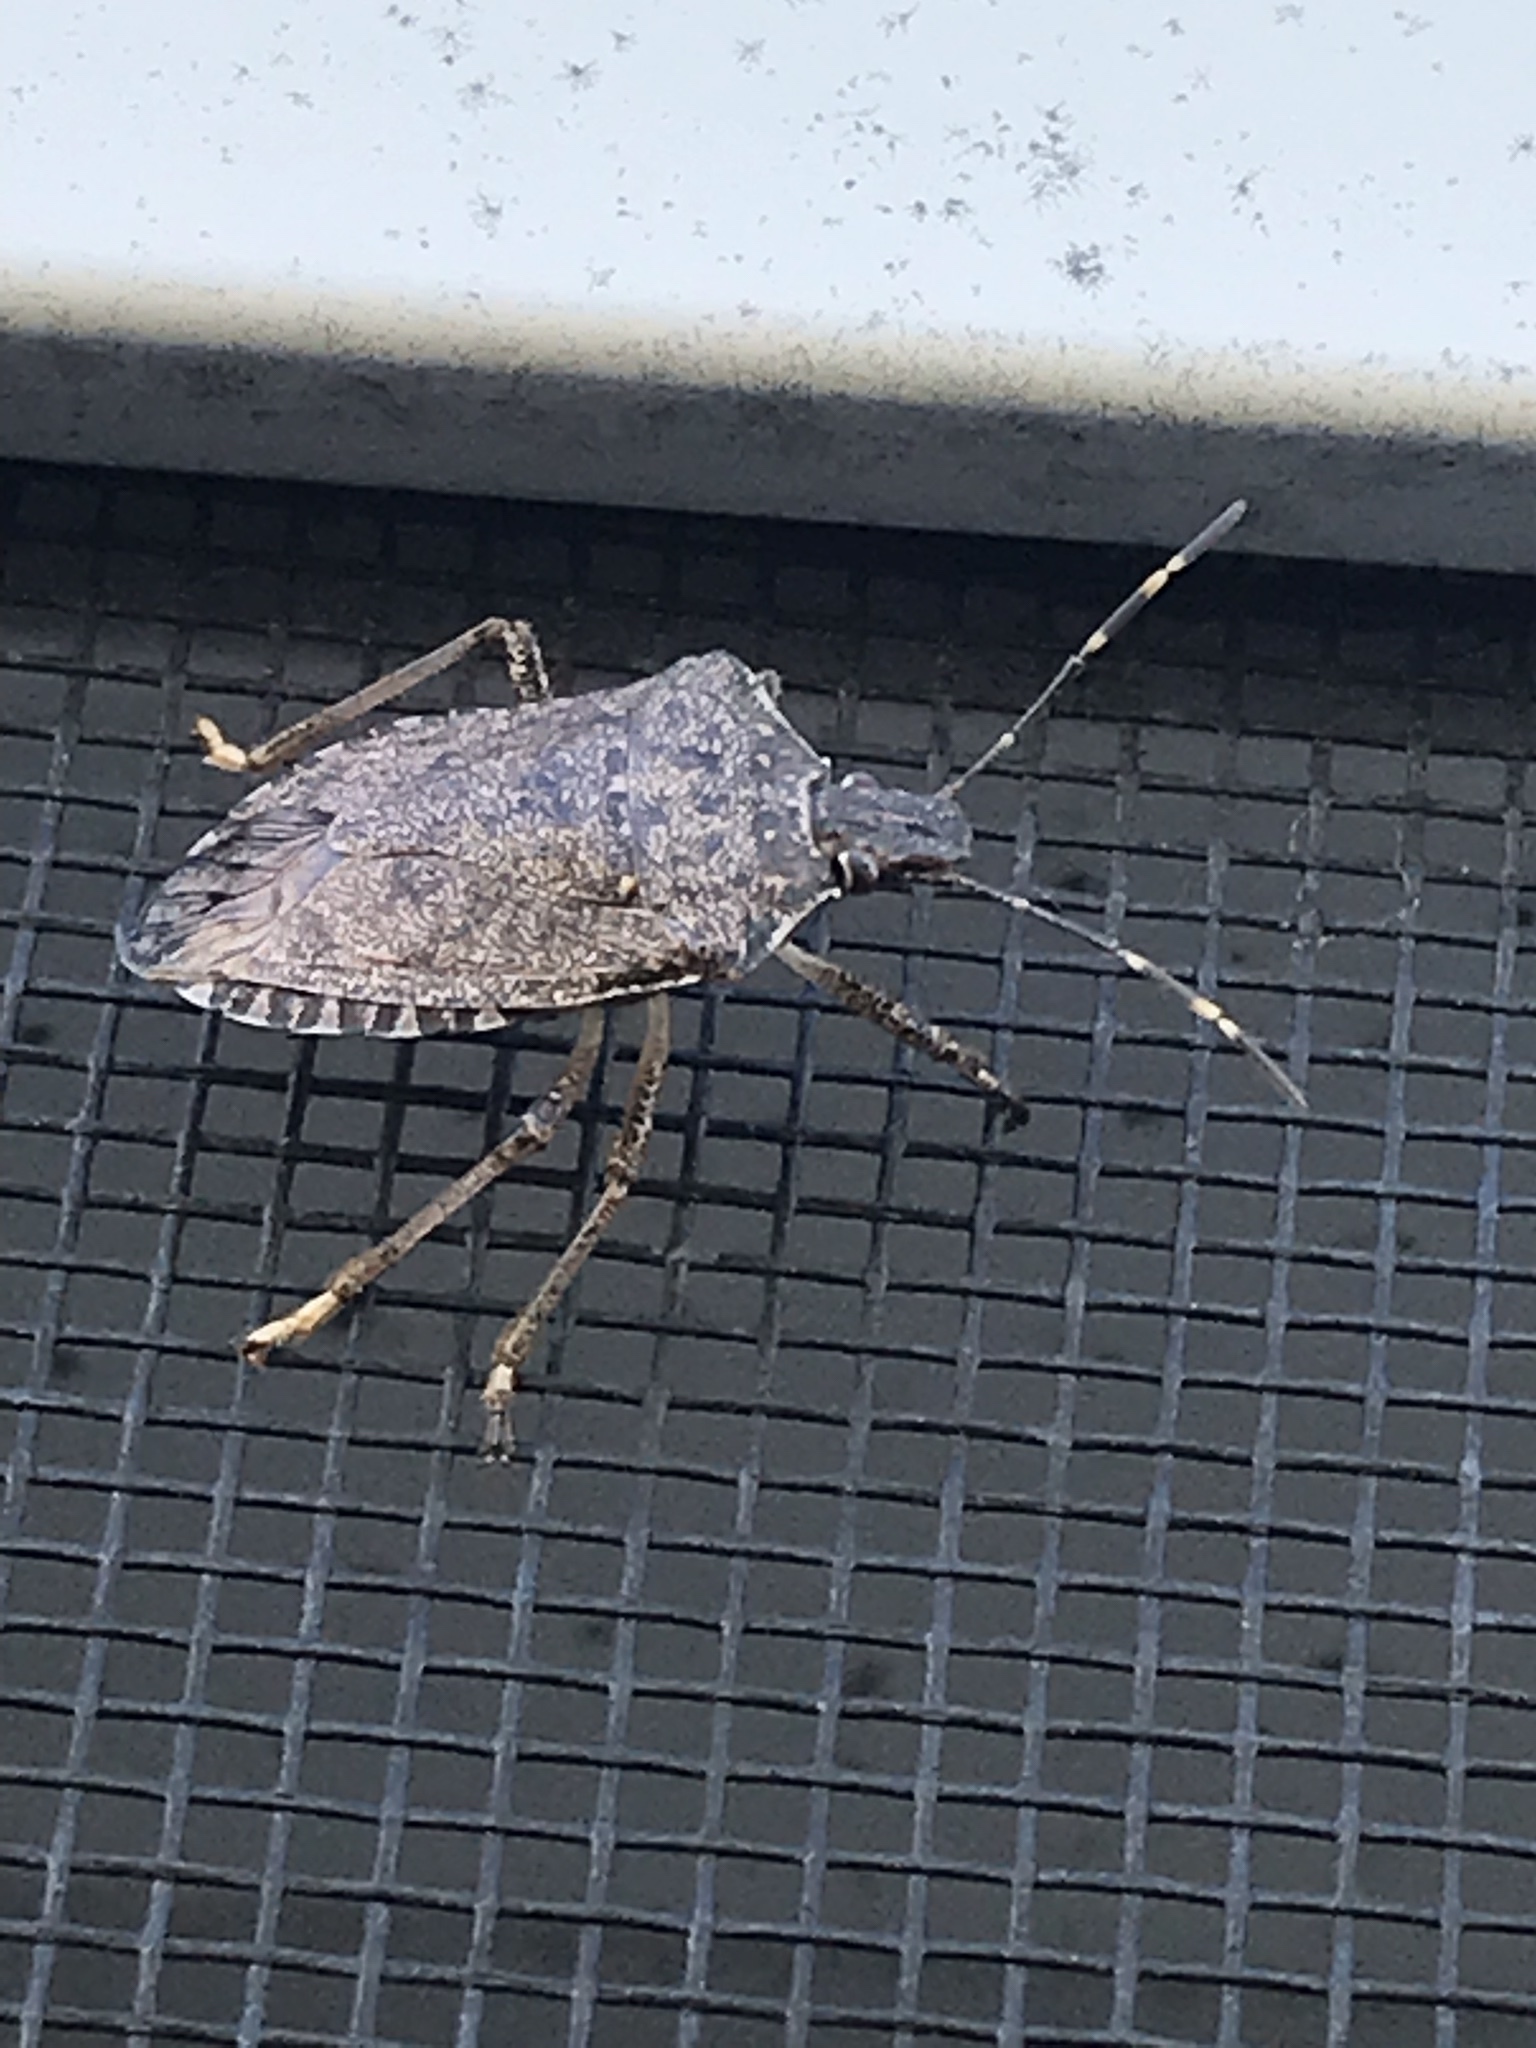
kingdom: Animalia
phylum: Arthropoda
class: Insecta
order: Hemiptera
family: Pentatomidae
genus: Halyomorpha
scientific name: Halyomorpha halys
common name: Brown marmorated stink bug
